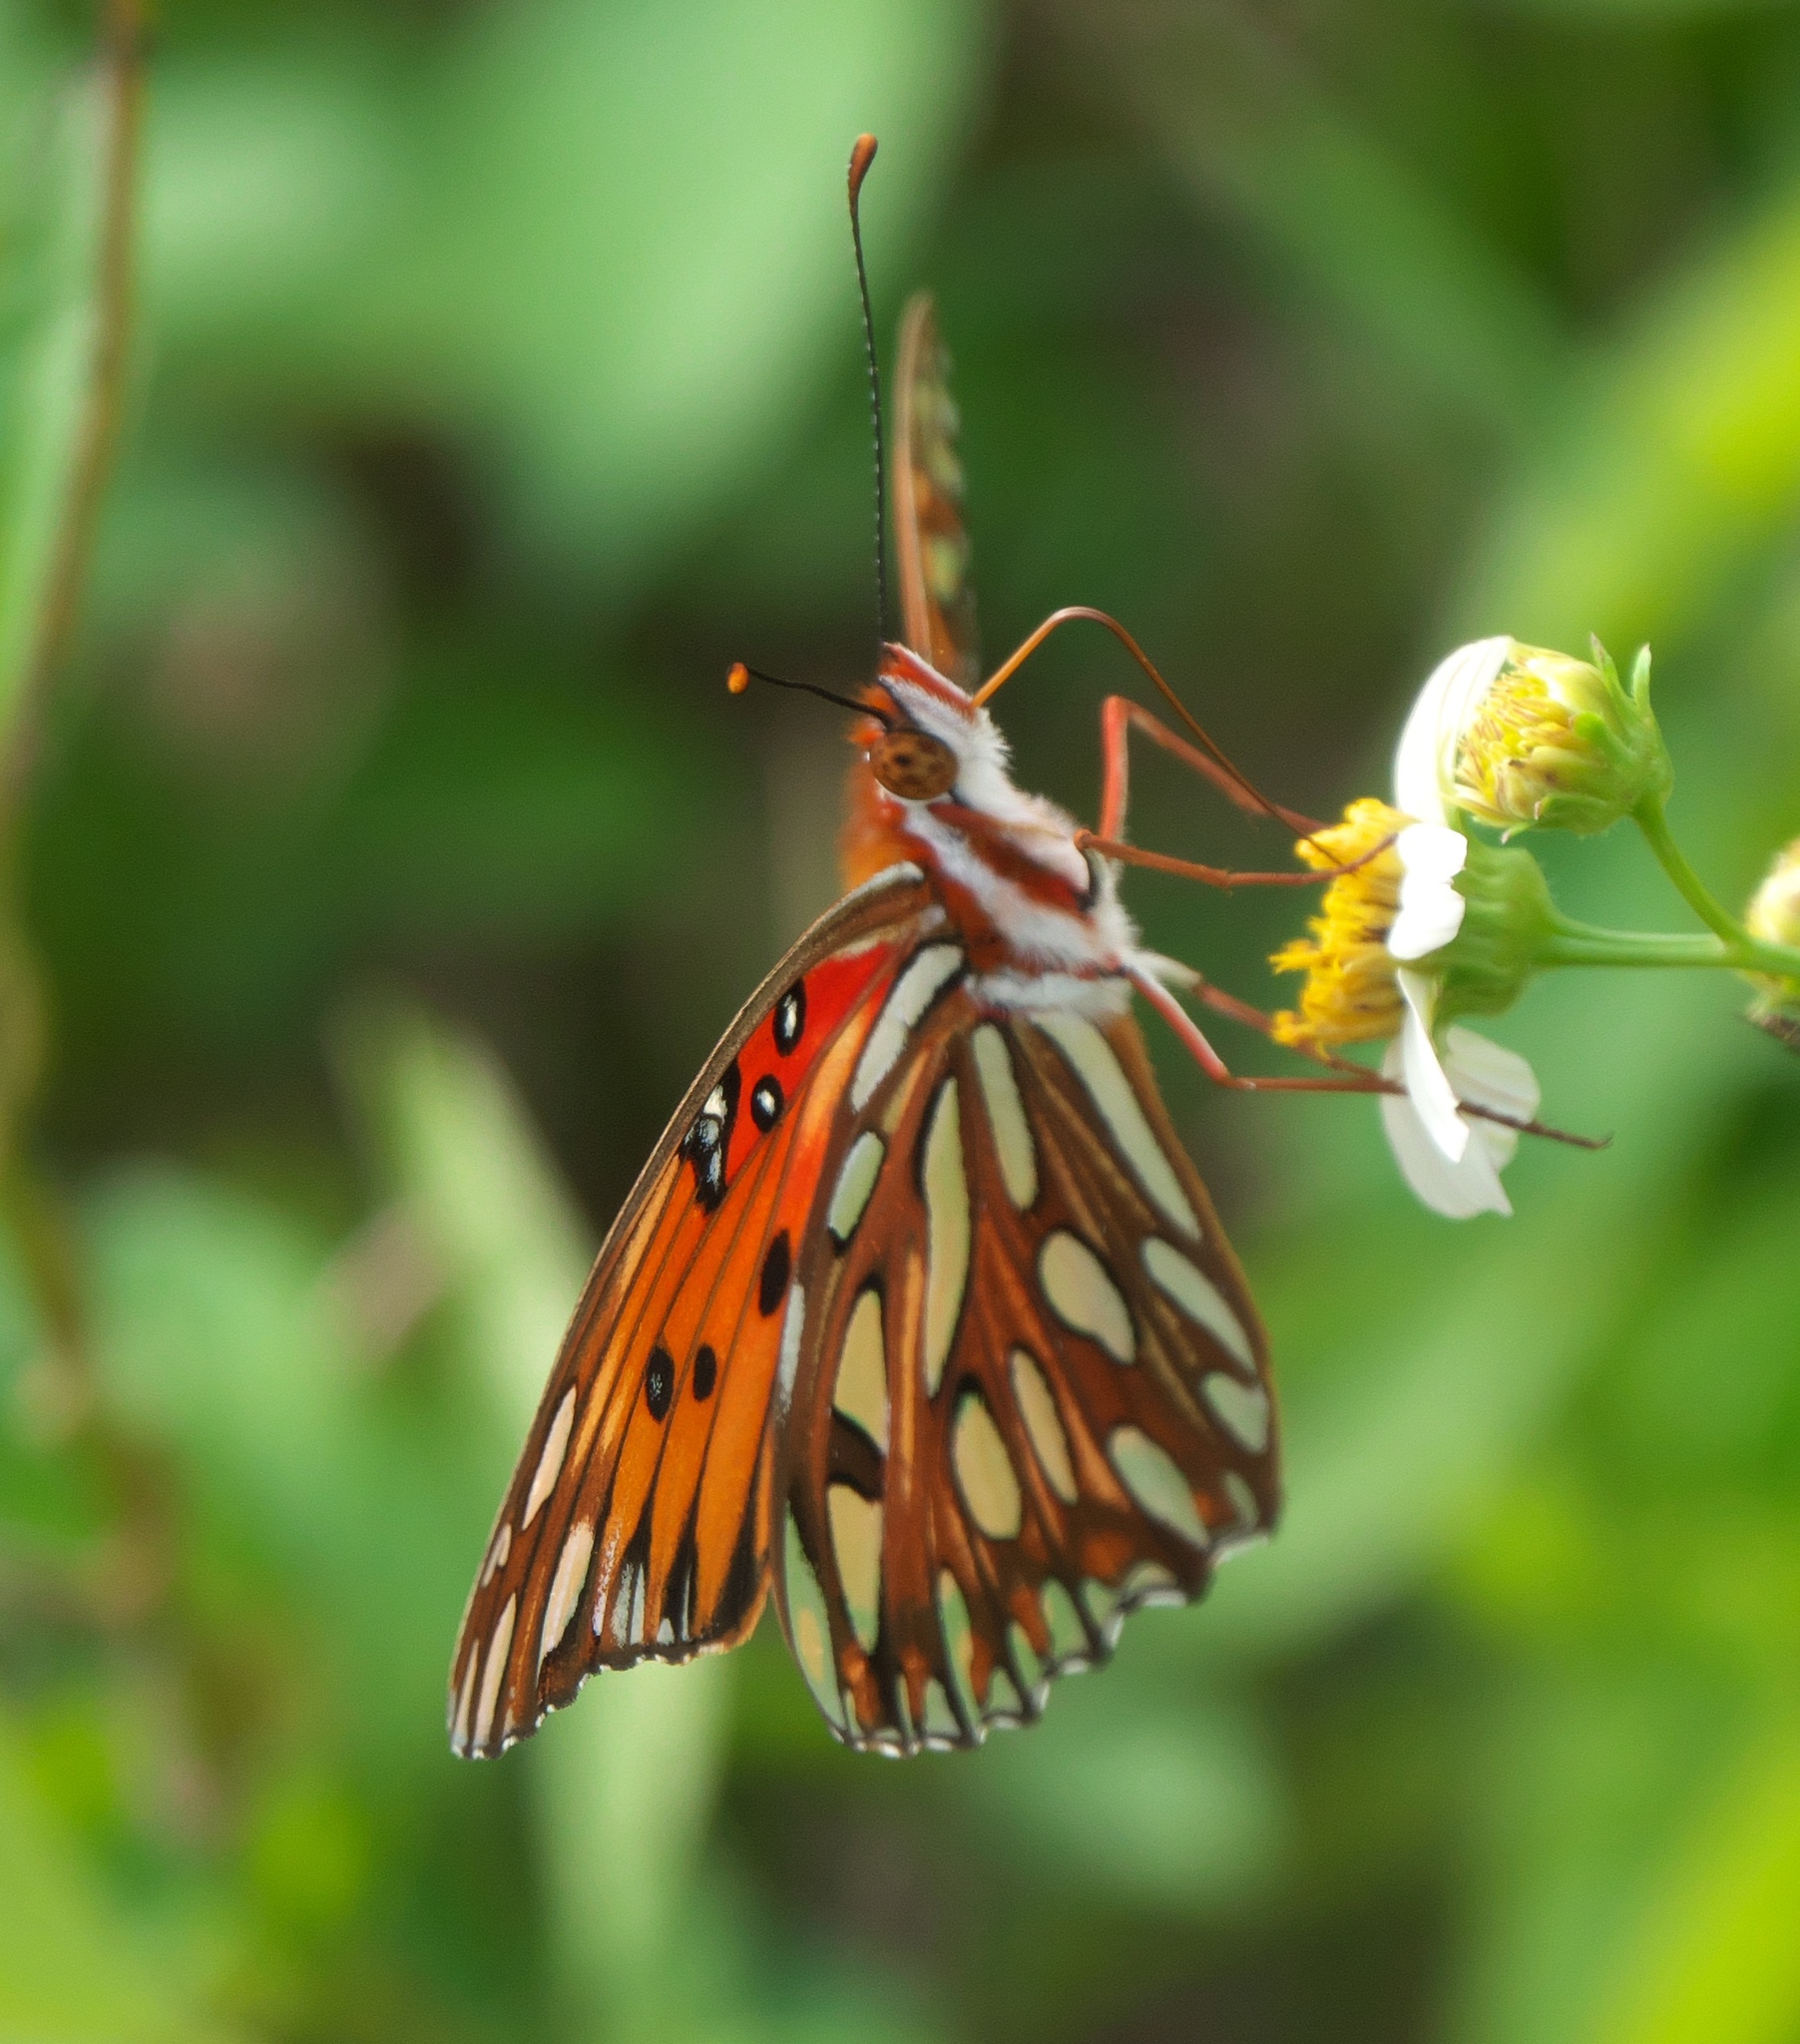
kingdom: Animalia
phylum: Arthropoda
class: Insecta
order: Lepidoptera
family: Nymphalidae
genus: Dione
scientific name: Dione vanillae
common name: Gulf fritillary
